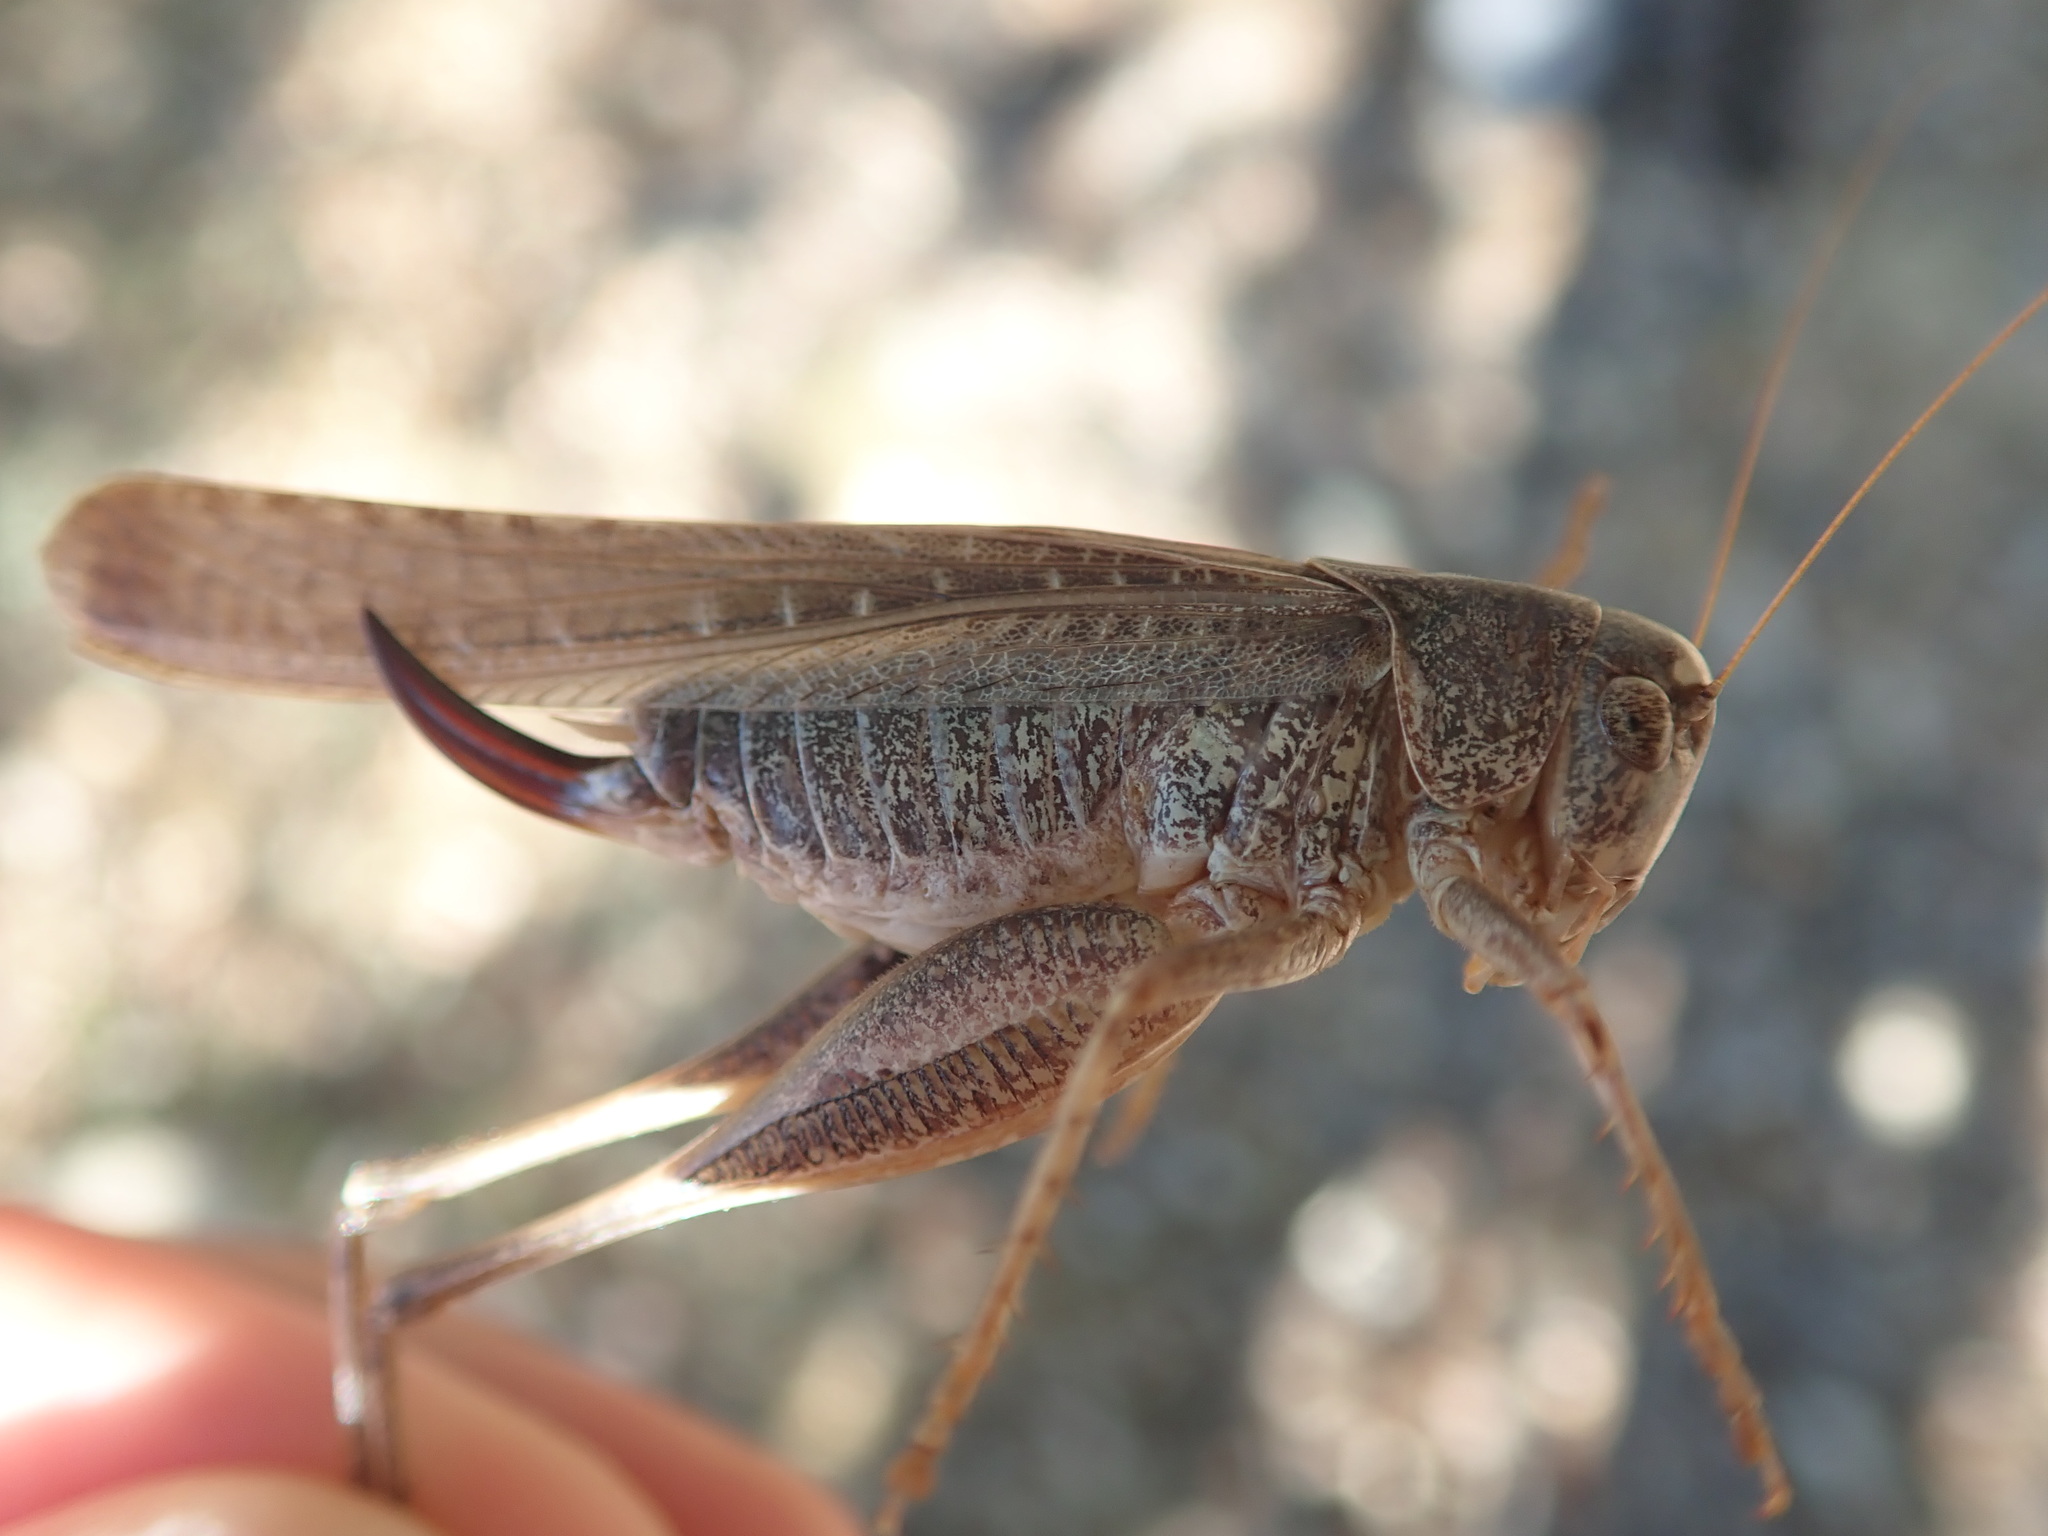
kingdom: Animalia
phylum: Arthropoda
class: Insecta
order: Orthoptera
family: Tettigoniidae
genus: Platycleis
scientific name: Platycleis intermedia
